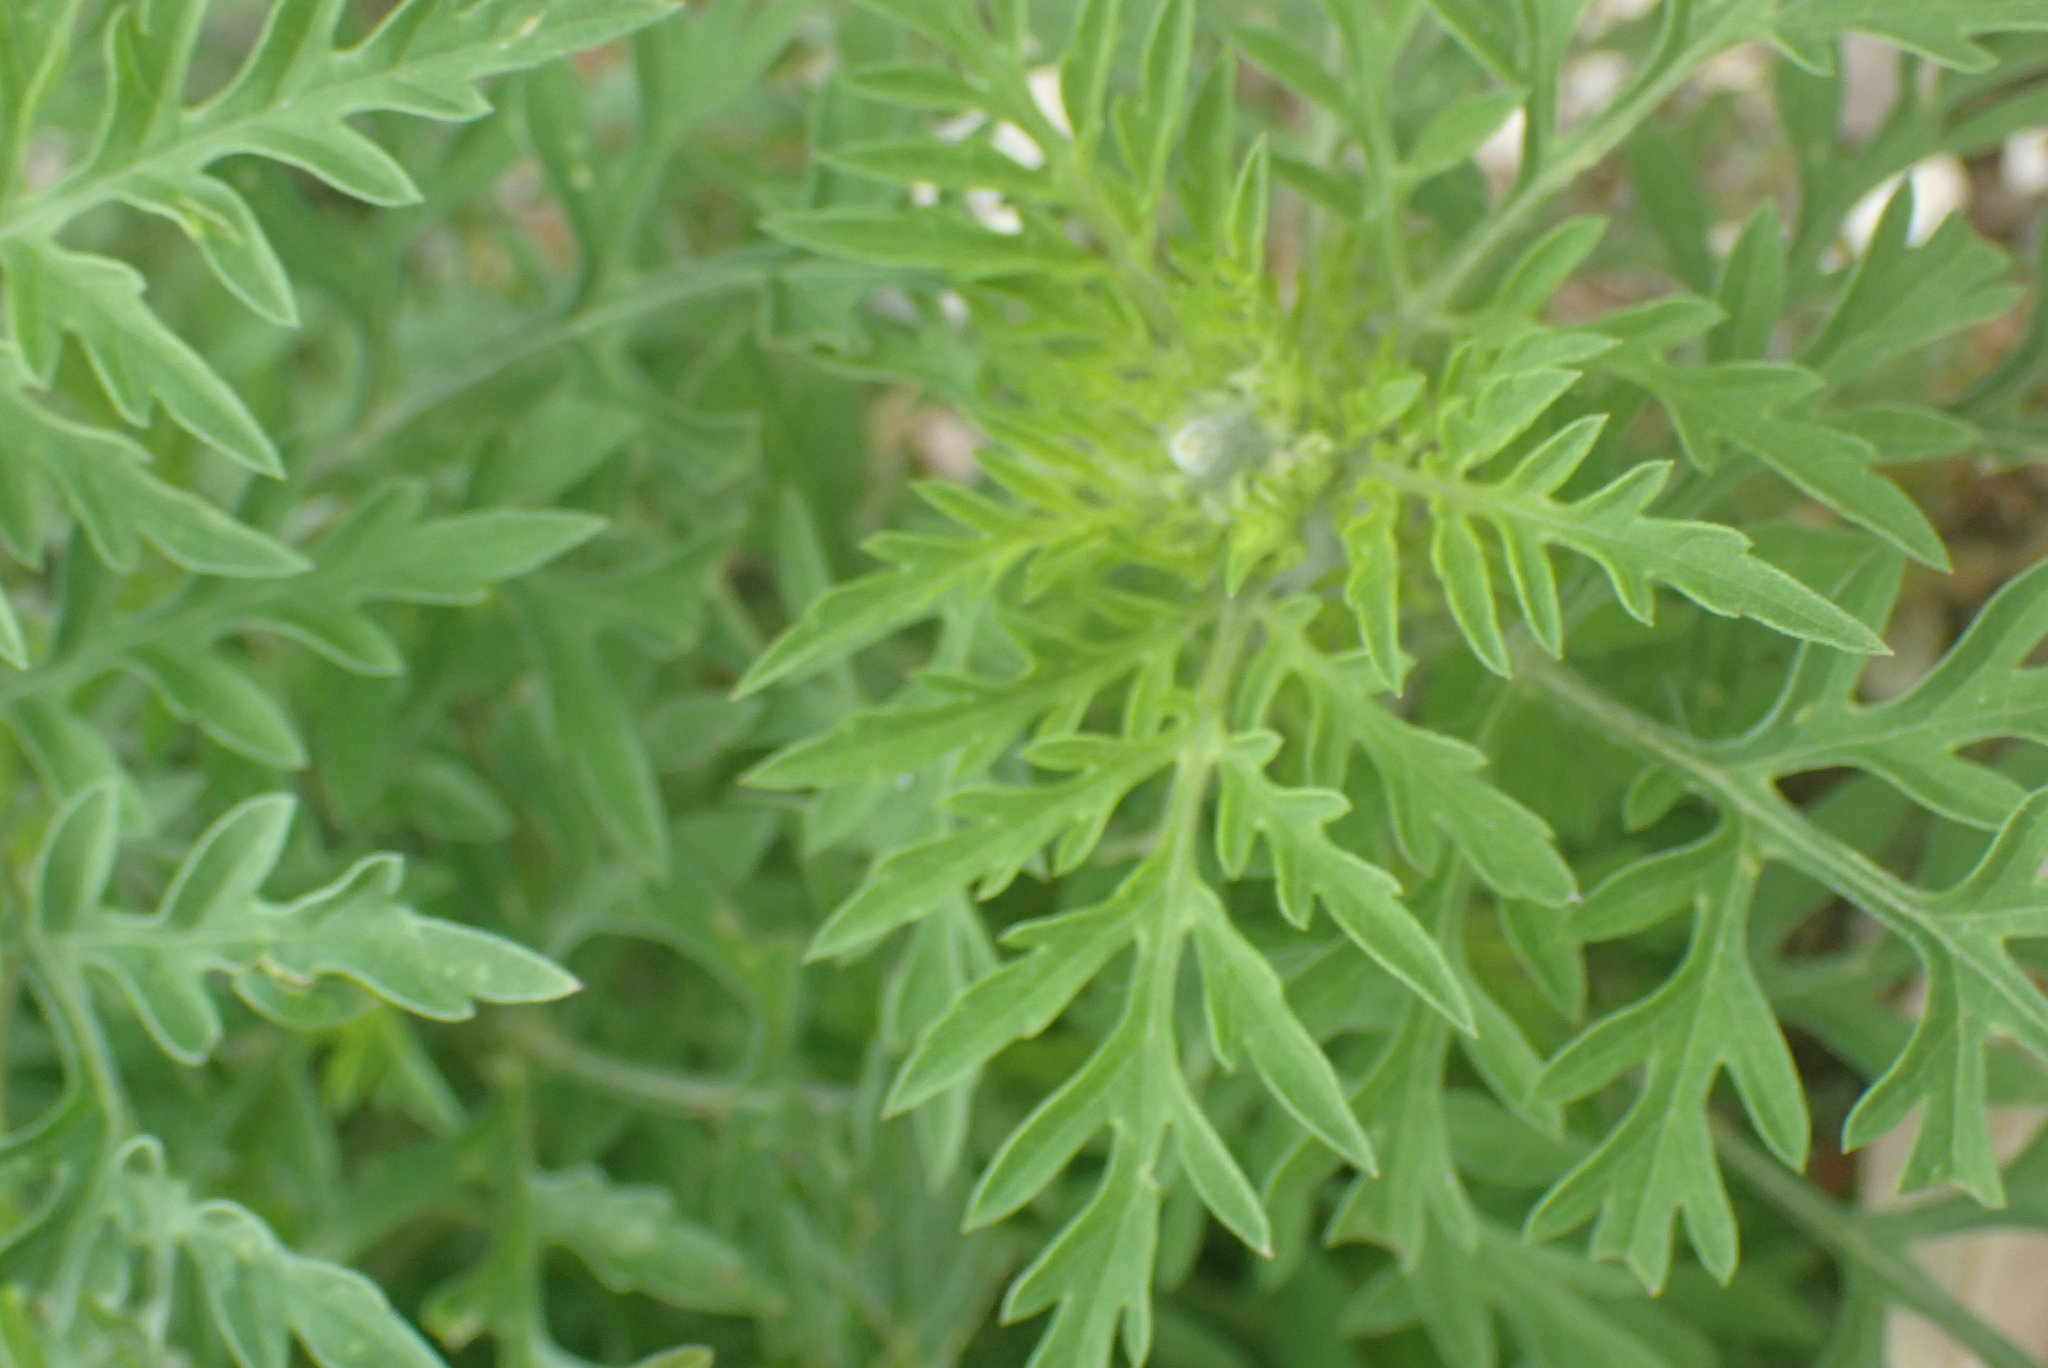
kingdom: Plantae
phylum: Tracheophyta
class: Magnoliopsida
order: Asterales
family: Asteraceae
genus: Ambrosia
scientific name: Ambrosia artemisiifolia
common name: Annual ragweed
